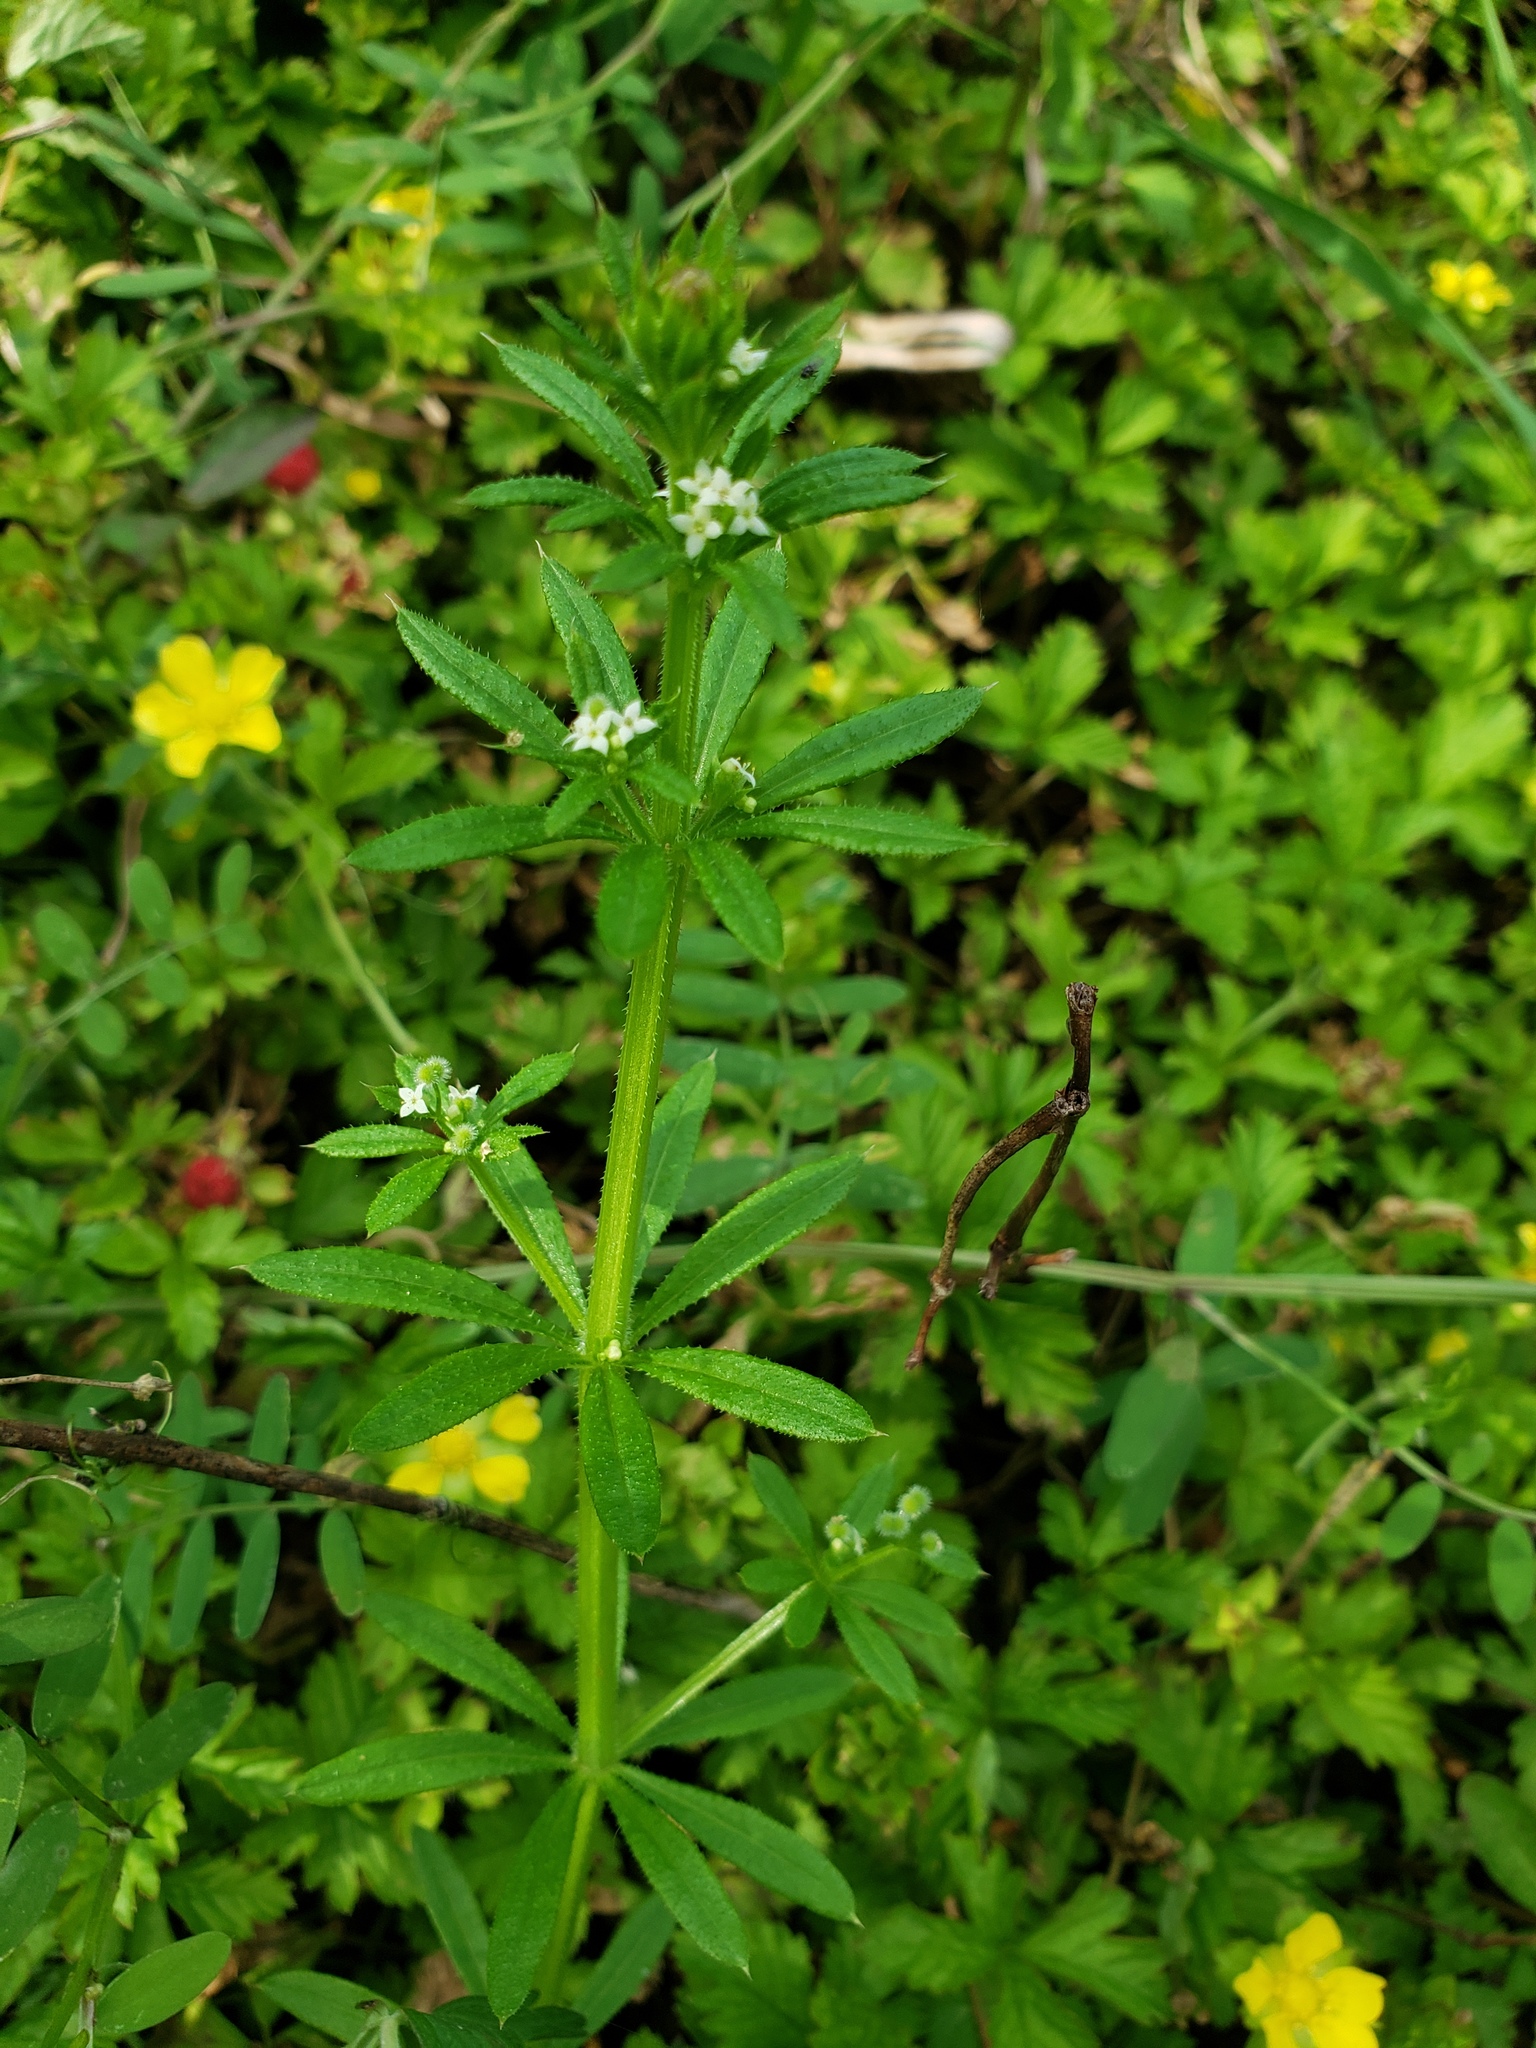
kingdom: Plantae
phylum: Tracheophyta
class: Magnoliopsida
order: Gentianales
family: Rubiaceae
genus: Galium
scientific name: Galium aparine
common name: Cleavers
